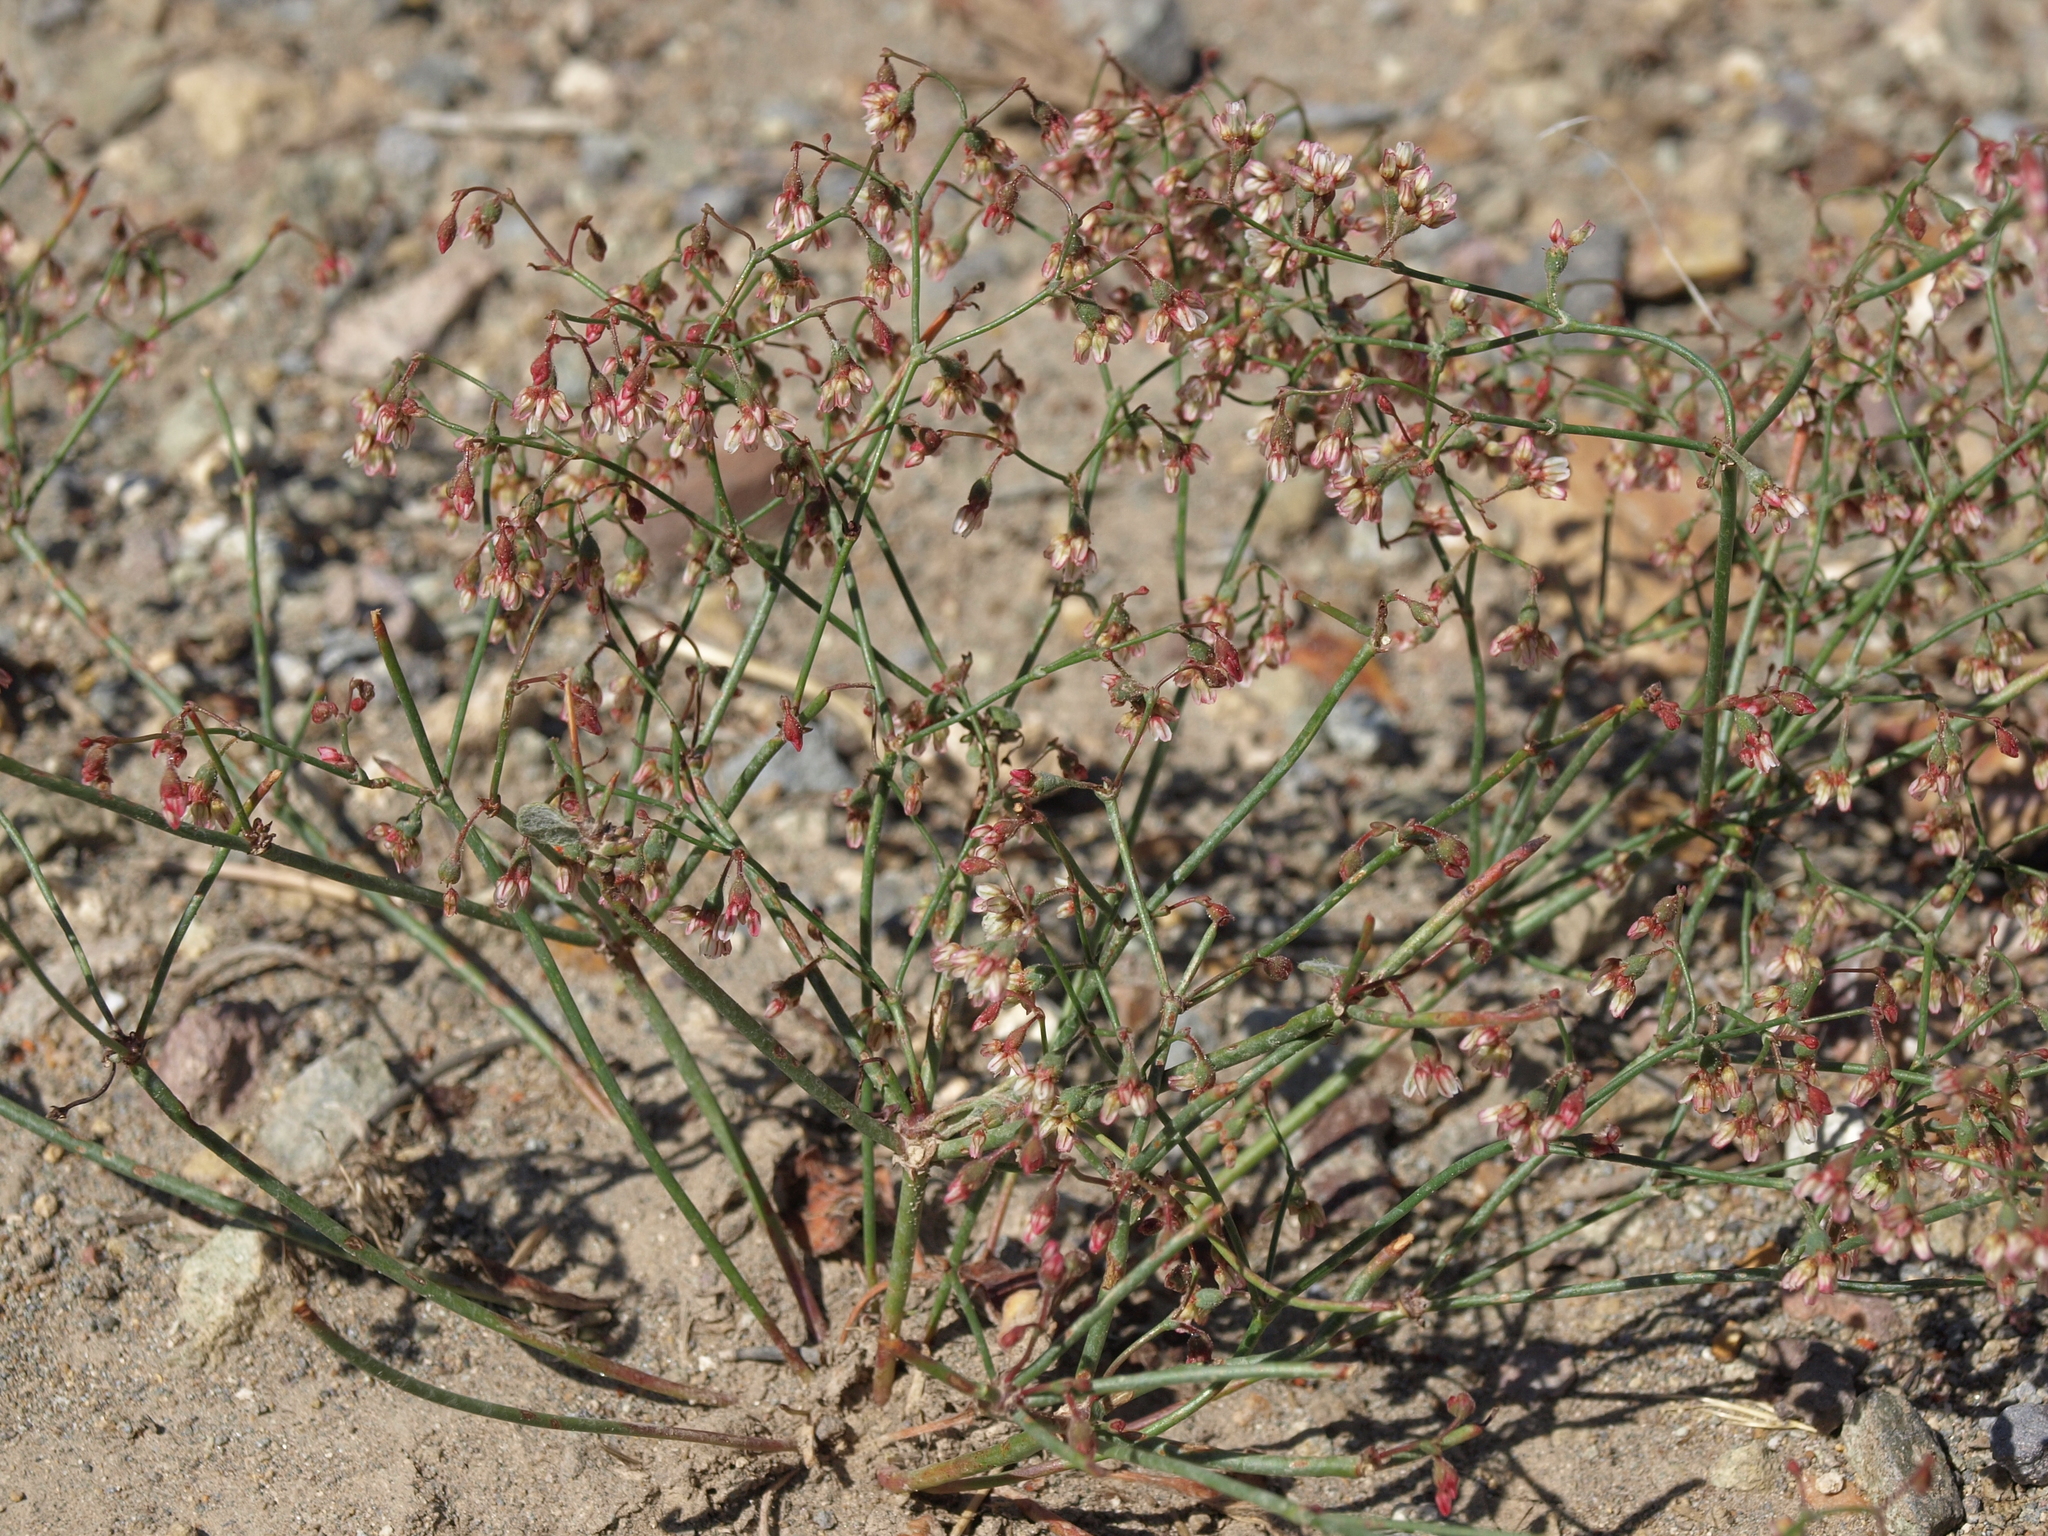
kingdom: Plantae
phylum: Tracheophyta
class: Magnoliopsida
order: Caryophyllales
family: Polygonaceae
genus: Eriogonum
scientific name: Eriogonum nutans
